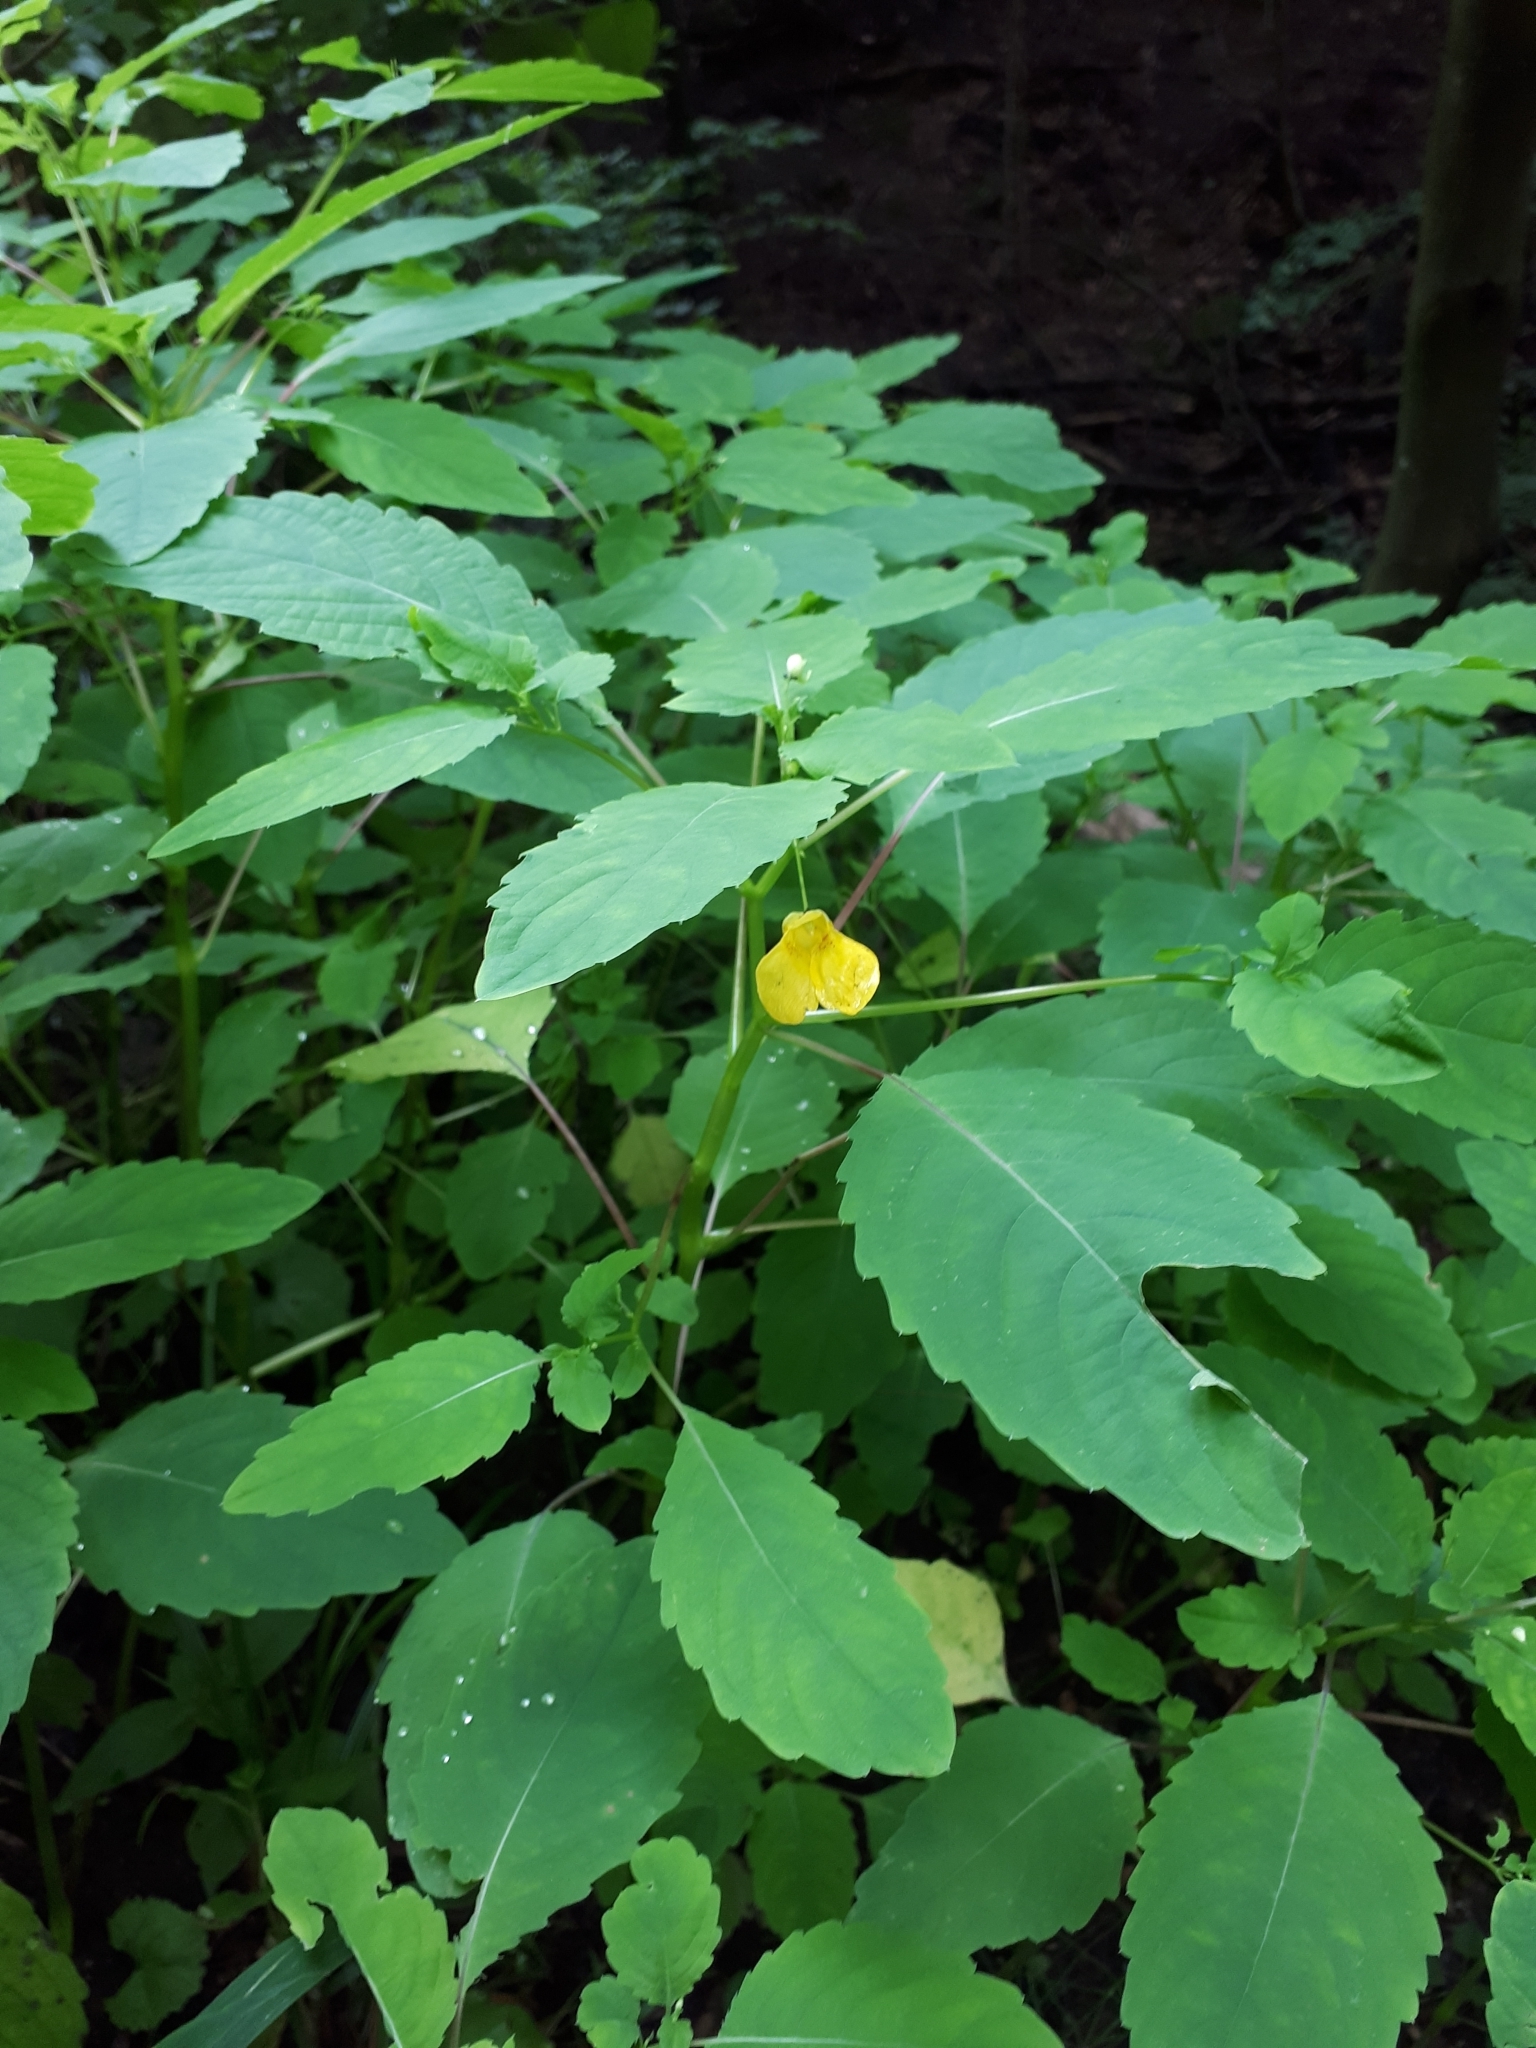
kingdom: Plantae
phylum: Tracheophyta
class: Magnoliopsida
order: Ericales
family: Balsaminaceae
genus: Impatiens
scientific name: Impatiens noli-tangere
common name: Touch-me-not balsam
